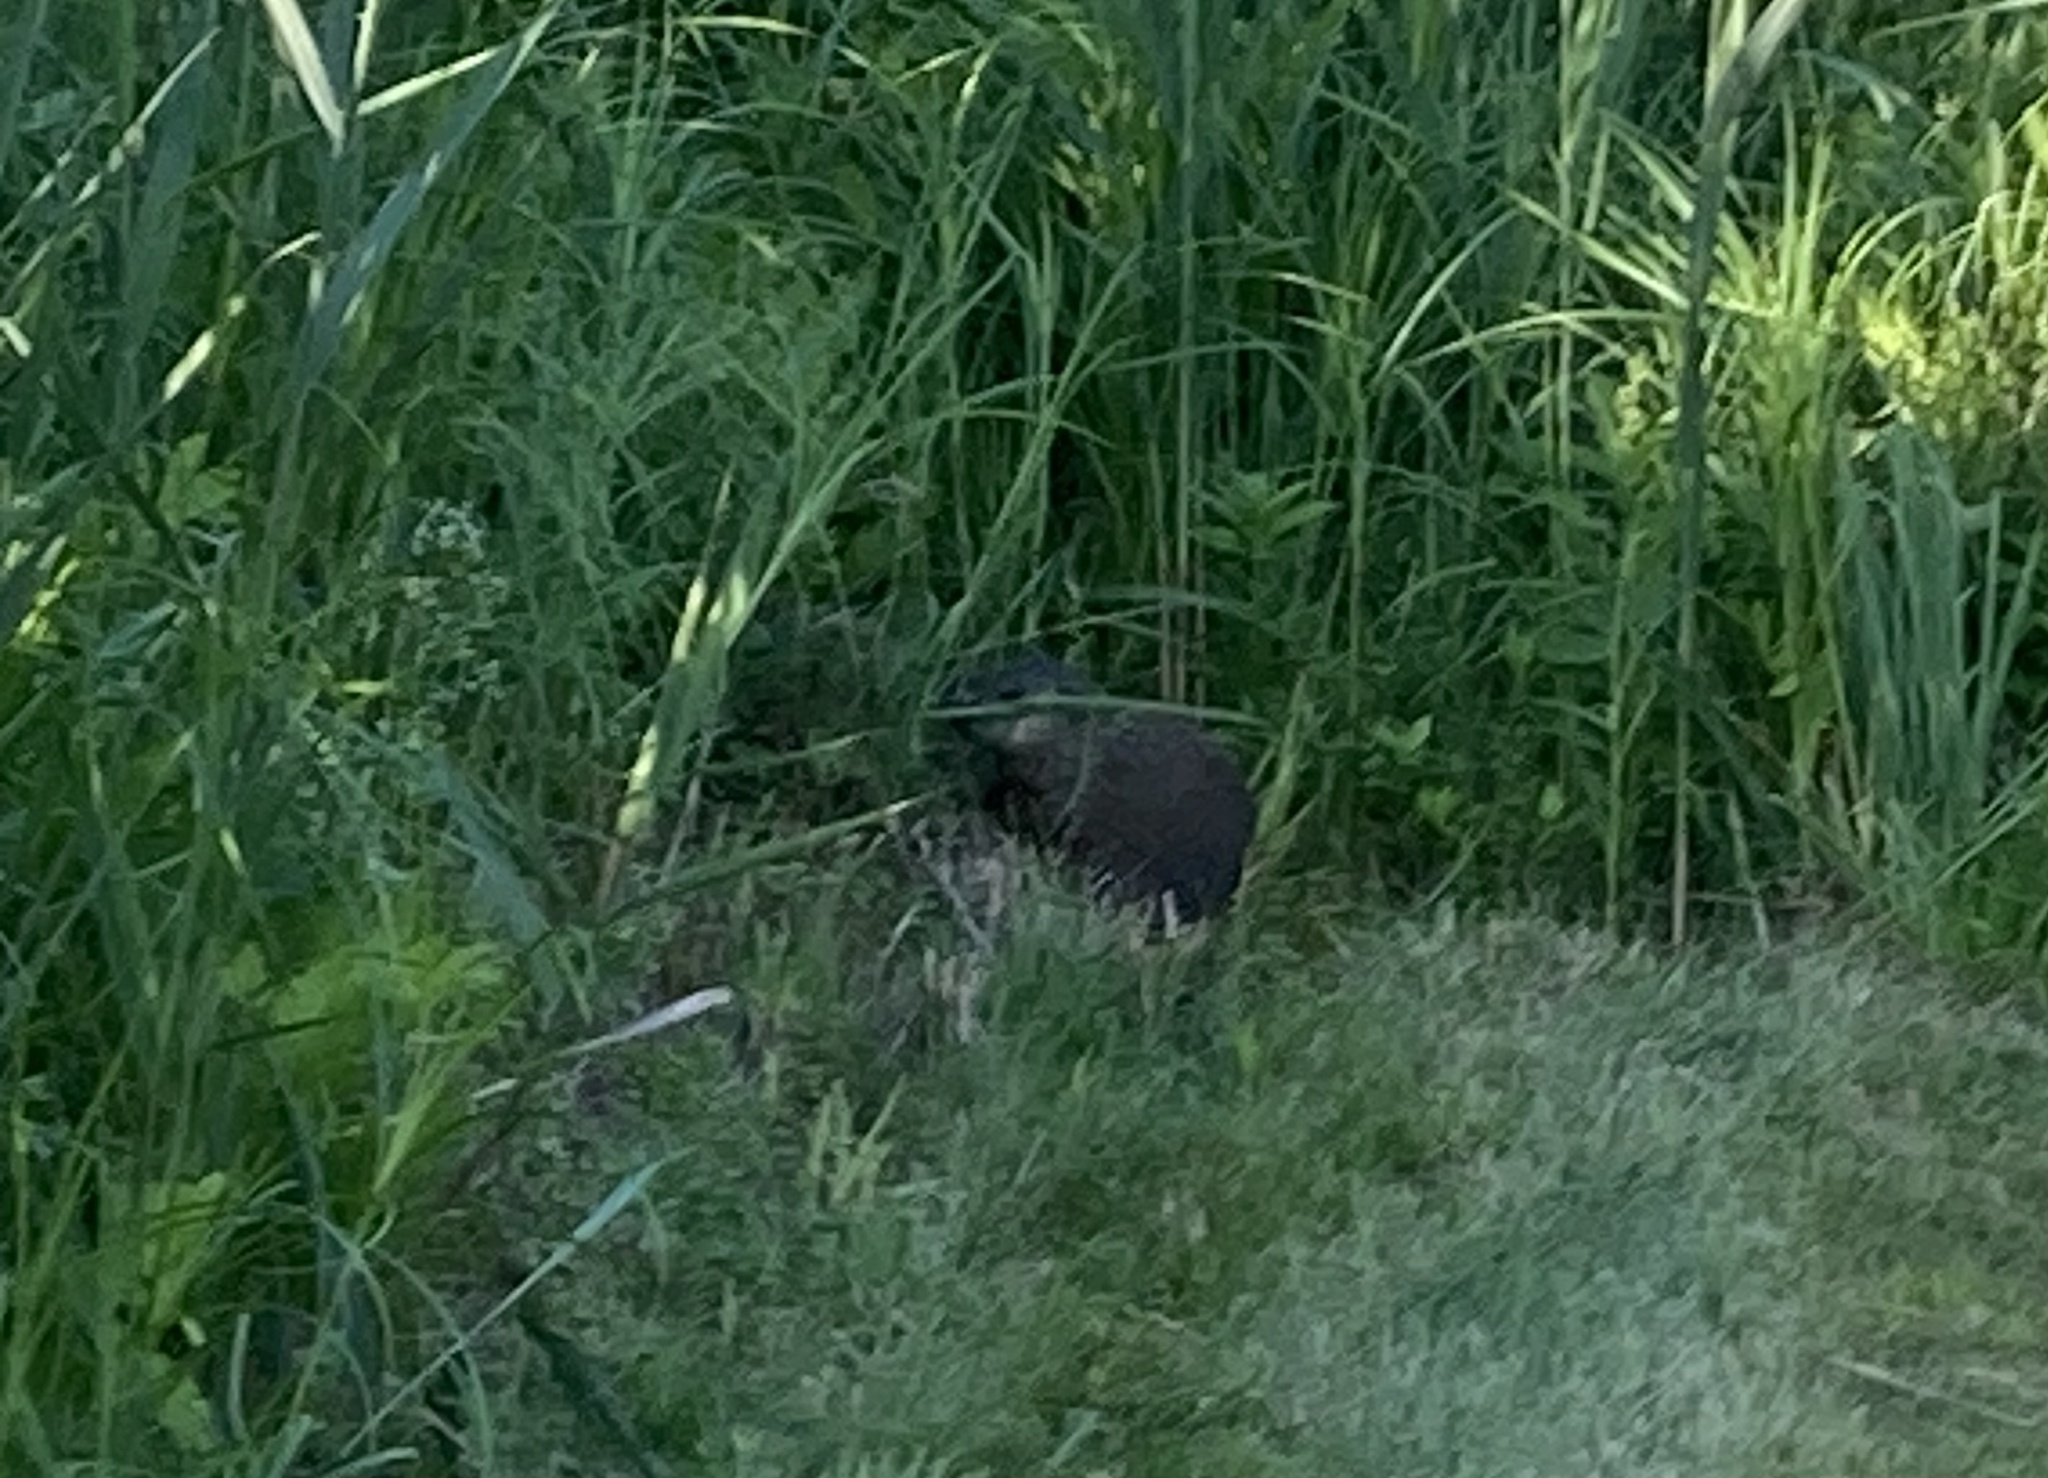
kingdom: Animalia
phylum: Chordata
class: Mammalia
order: Rodentia
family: Sciuridae
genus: Marmota
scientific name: Marmota monax
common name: Groundhog
